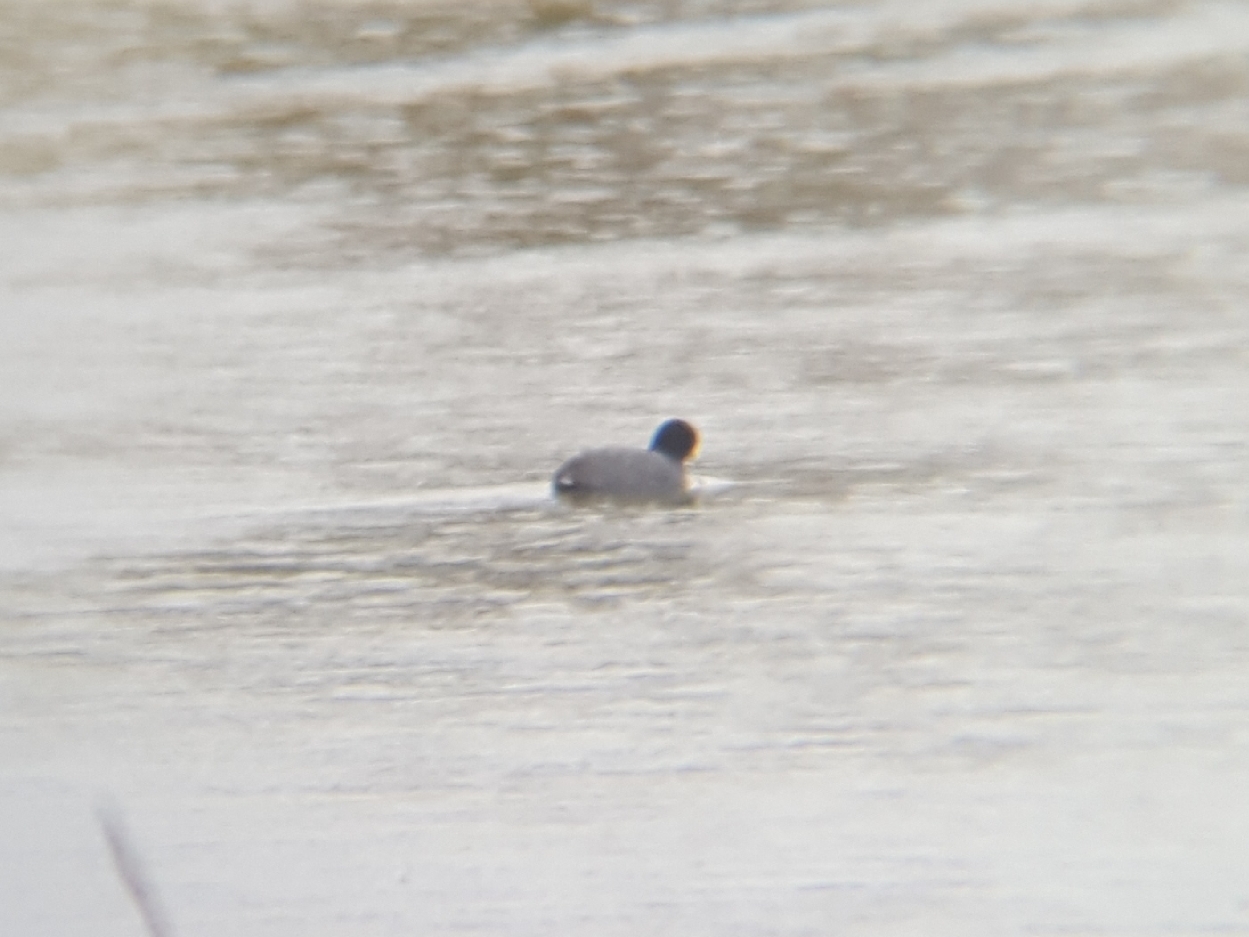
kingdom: Animalia
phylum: Chordata
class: Aves
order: Gruiformes
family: Rallidae
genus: Fulica
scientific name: Fulica americana
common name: American coot
